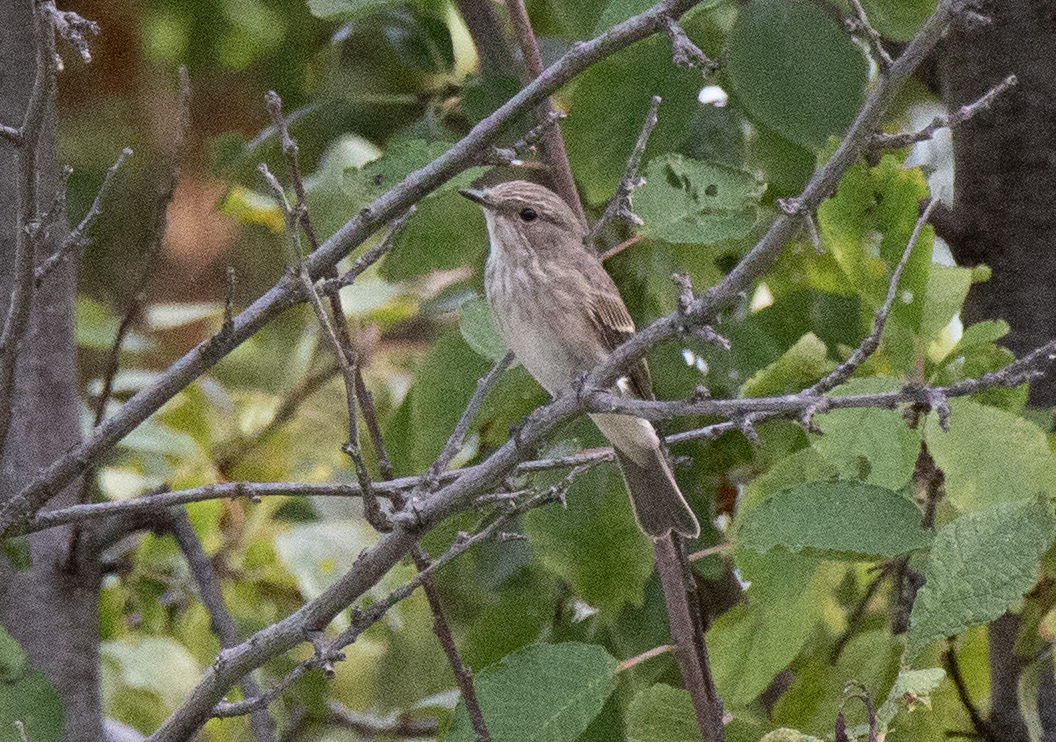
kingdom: Animalia
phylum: Chordata
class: Aves
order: Passeriformes
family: Muscicapidae
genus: Muscicapa
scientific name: Muscicapa striata
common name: Spotted flycatcher
